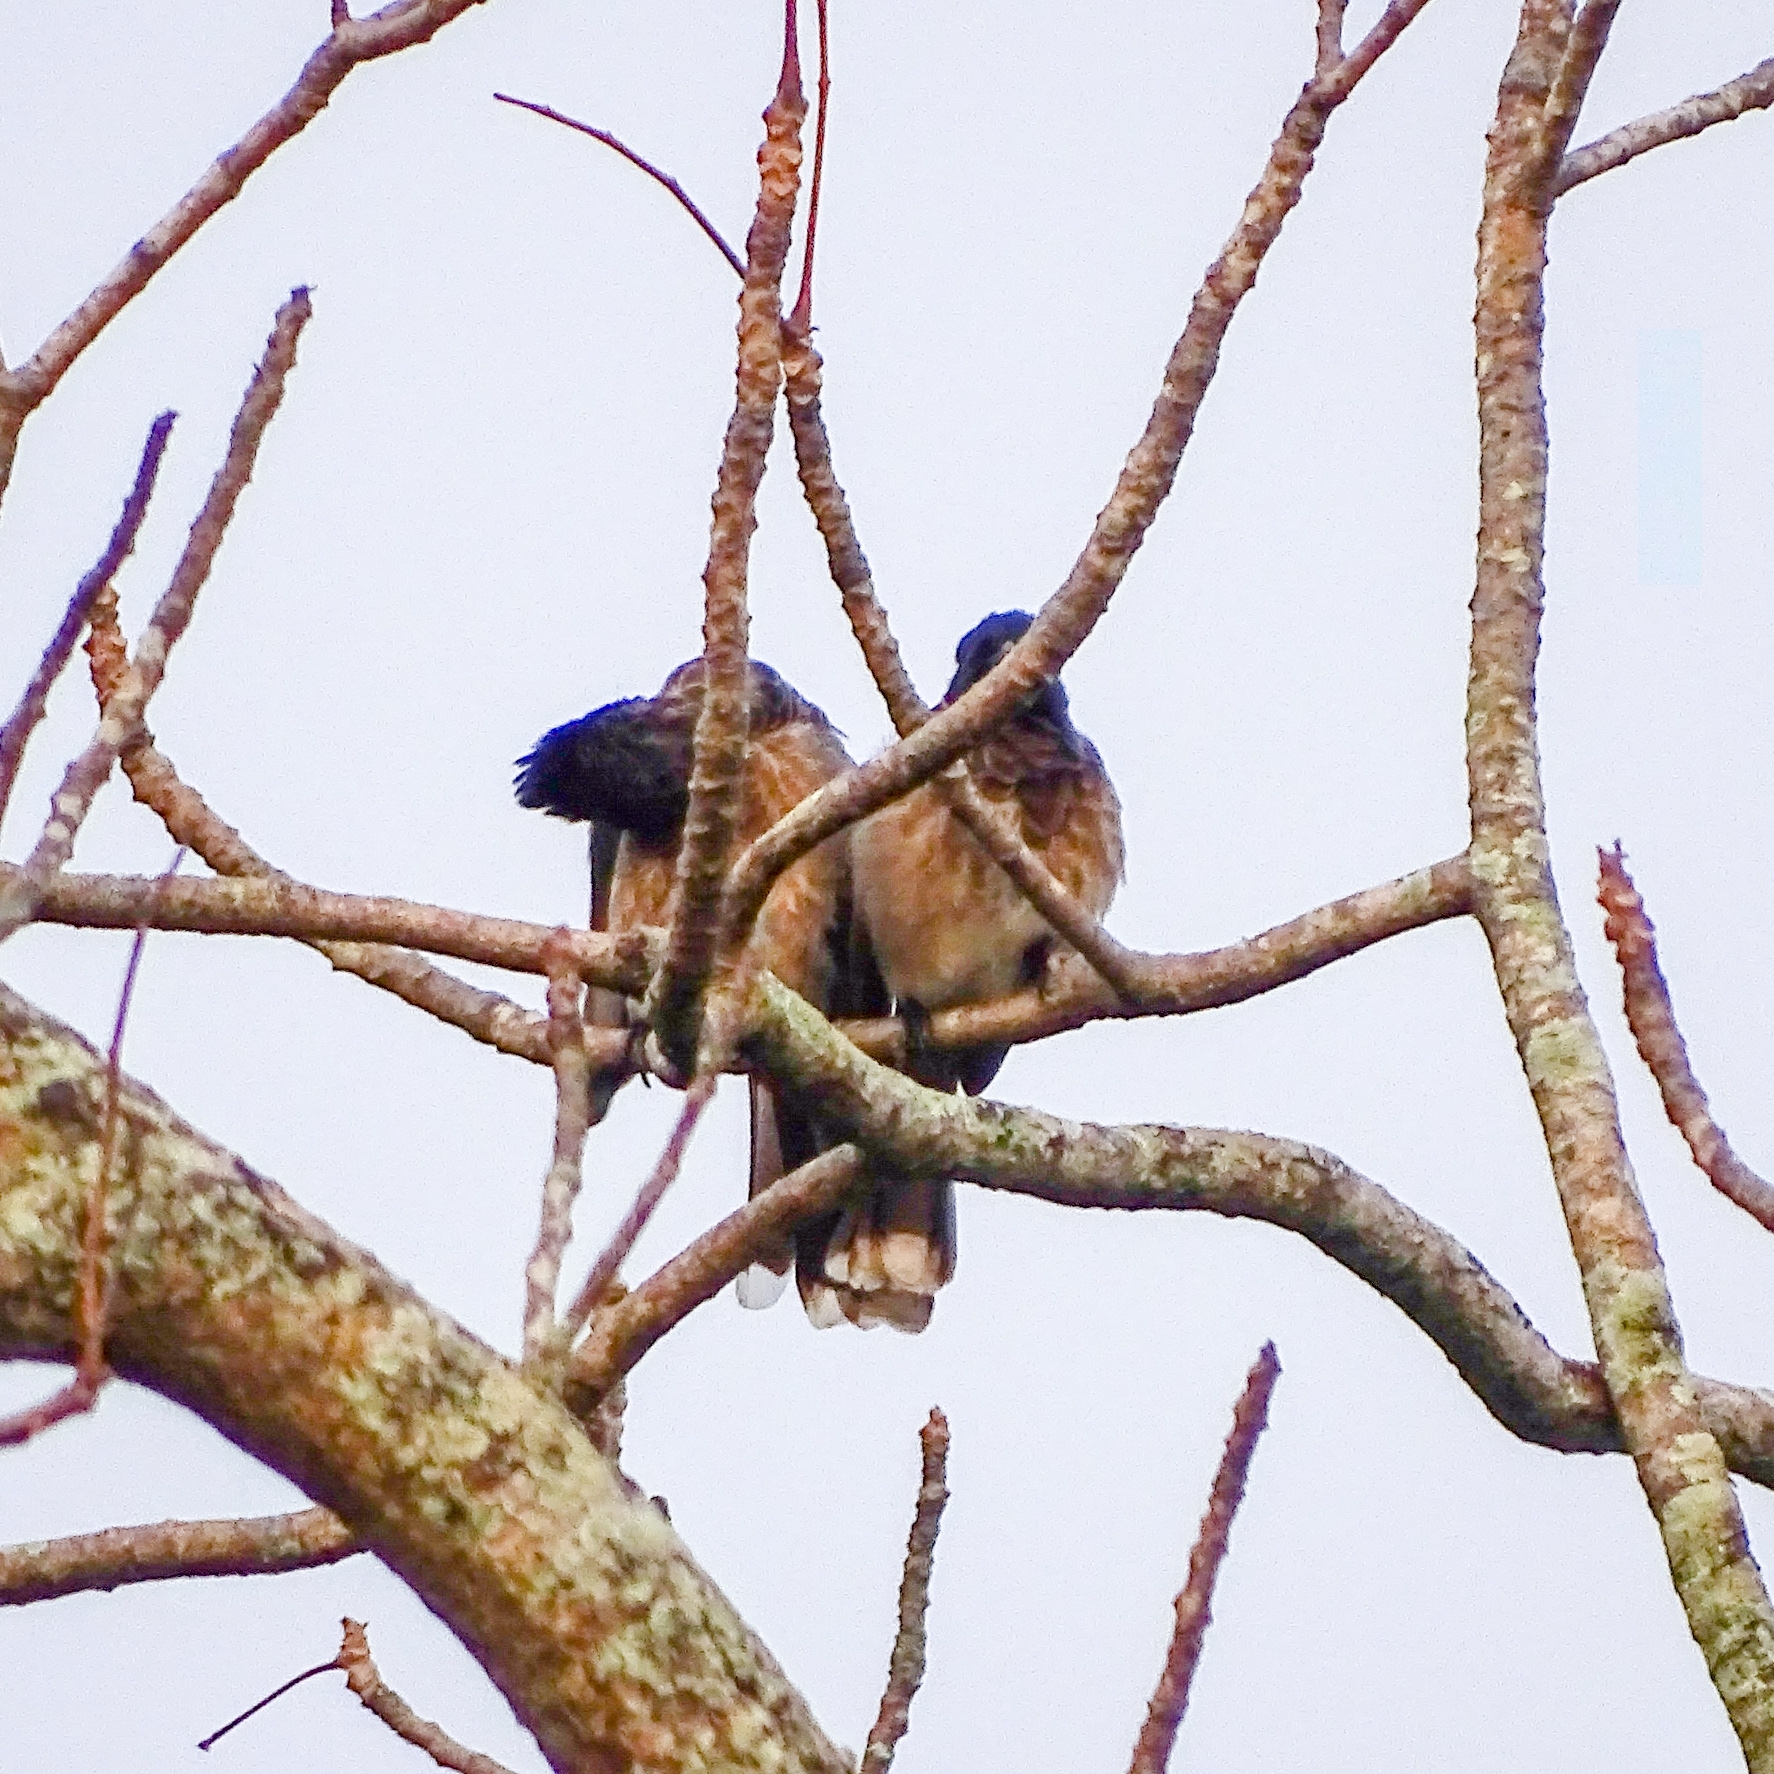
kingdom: Animalia
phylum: Chordata
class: Aves
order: Passeriformes
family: Pycnonotidae
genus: Pycnonotus
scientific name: Pycnonotus cafer
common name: Red-vented bulbul
